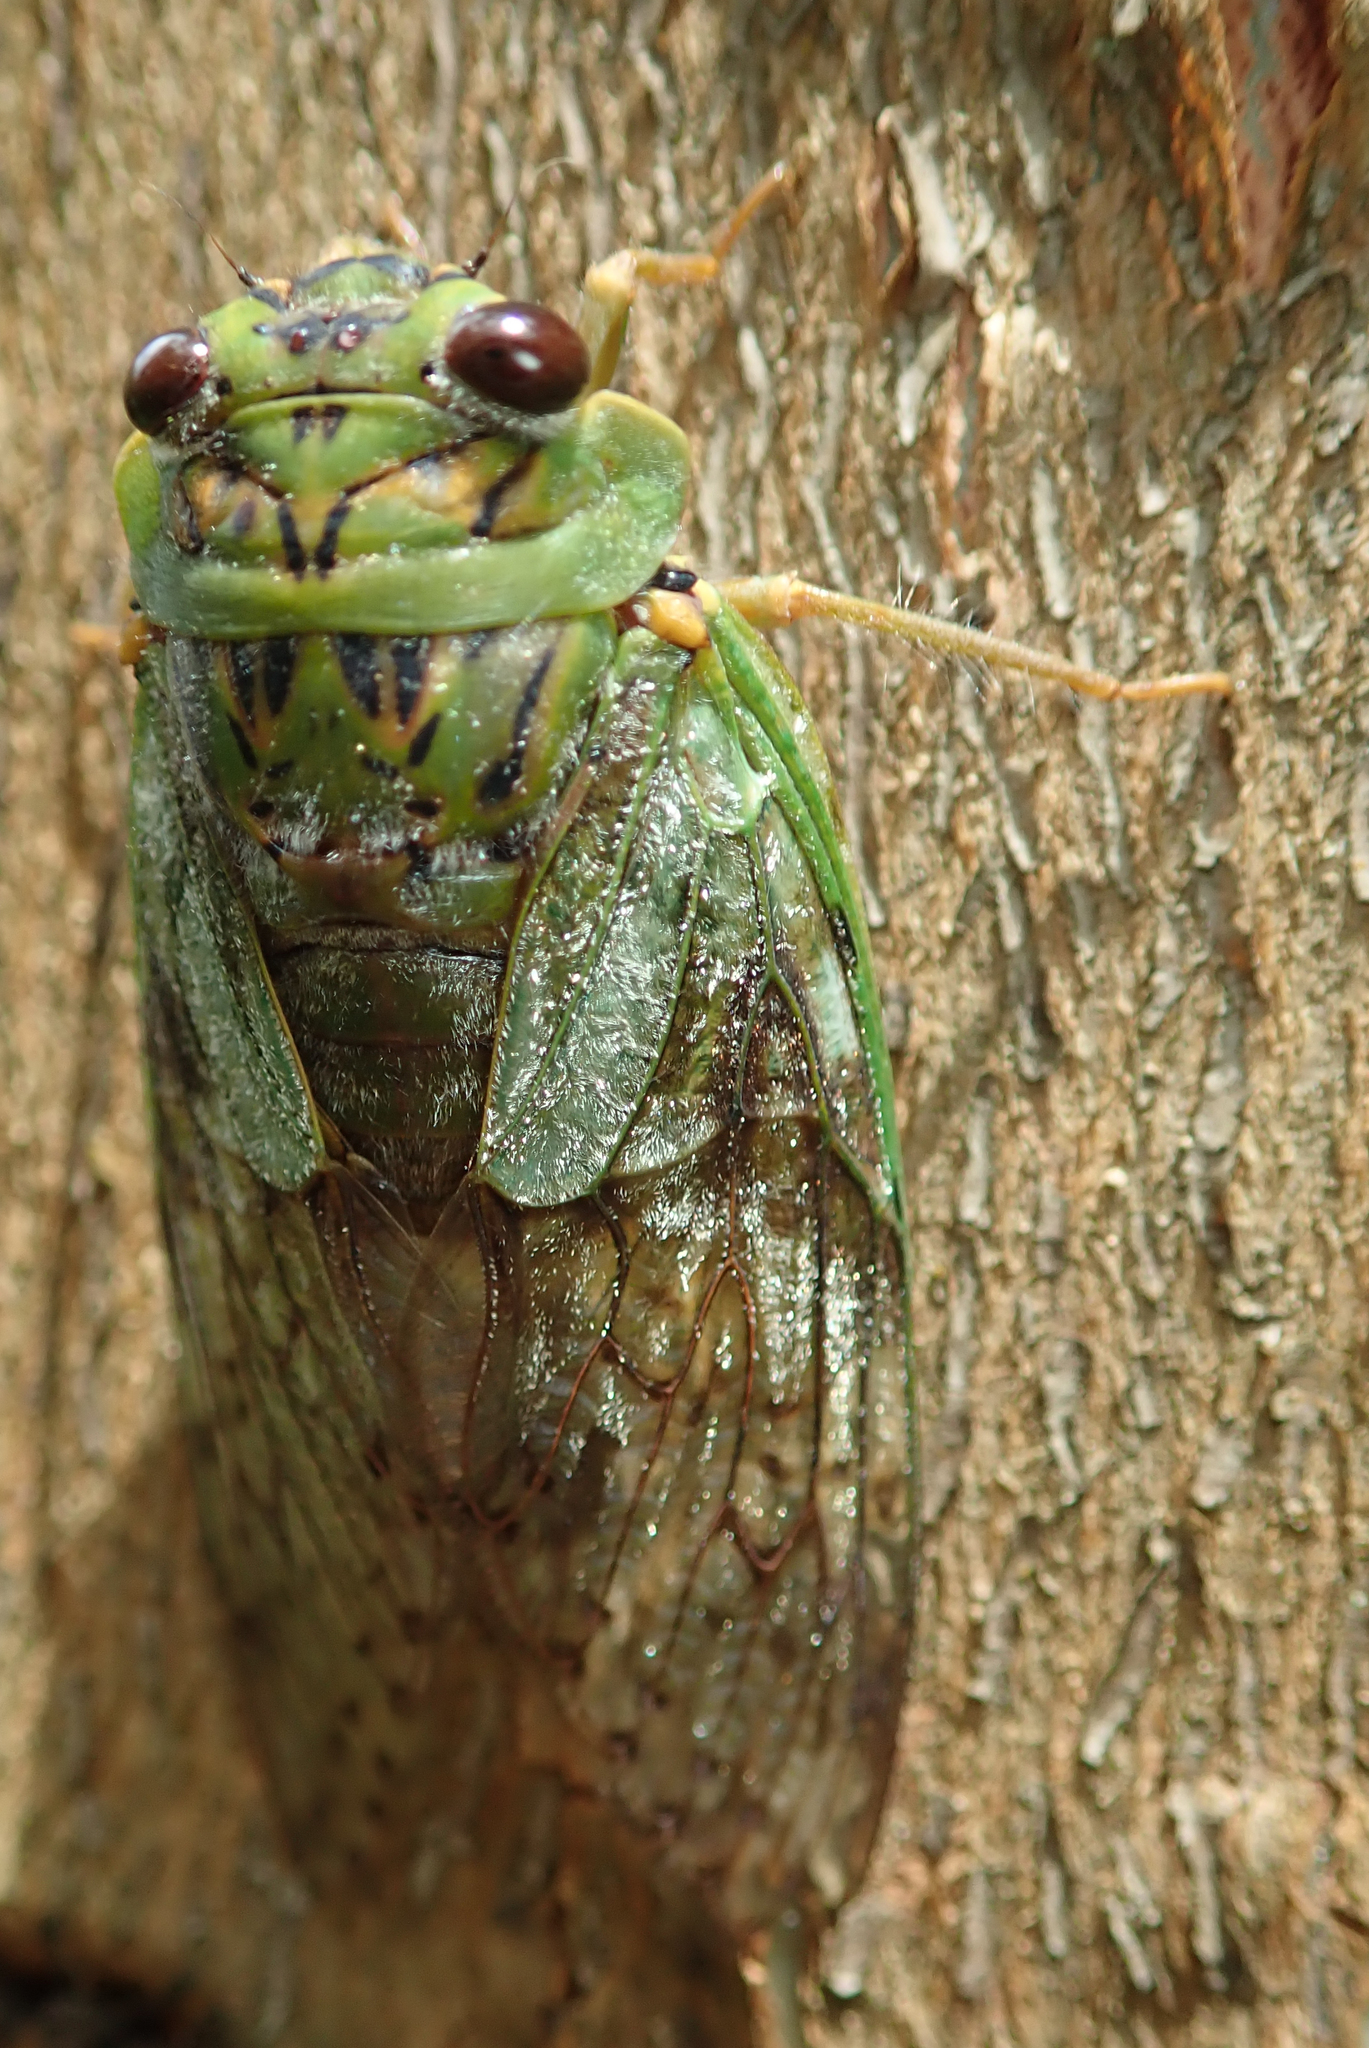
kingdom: Animalia
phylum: Arthropoda
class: Insecta
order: Hemiptera
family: Cicadidae
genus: Dyticopycna
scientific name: Dyticopycna semiclara
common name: Whining forest cicada
